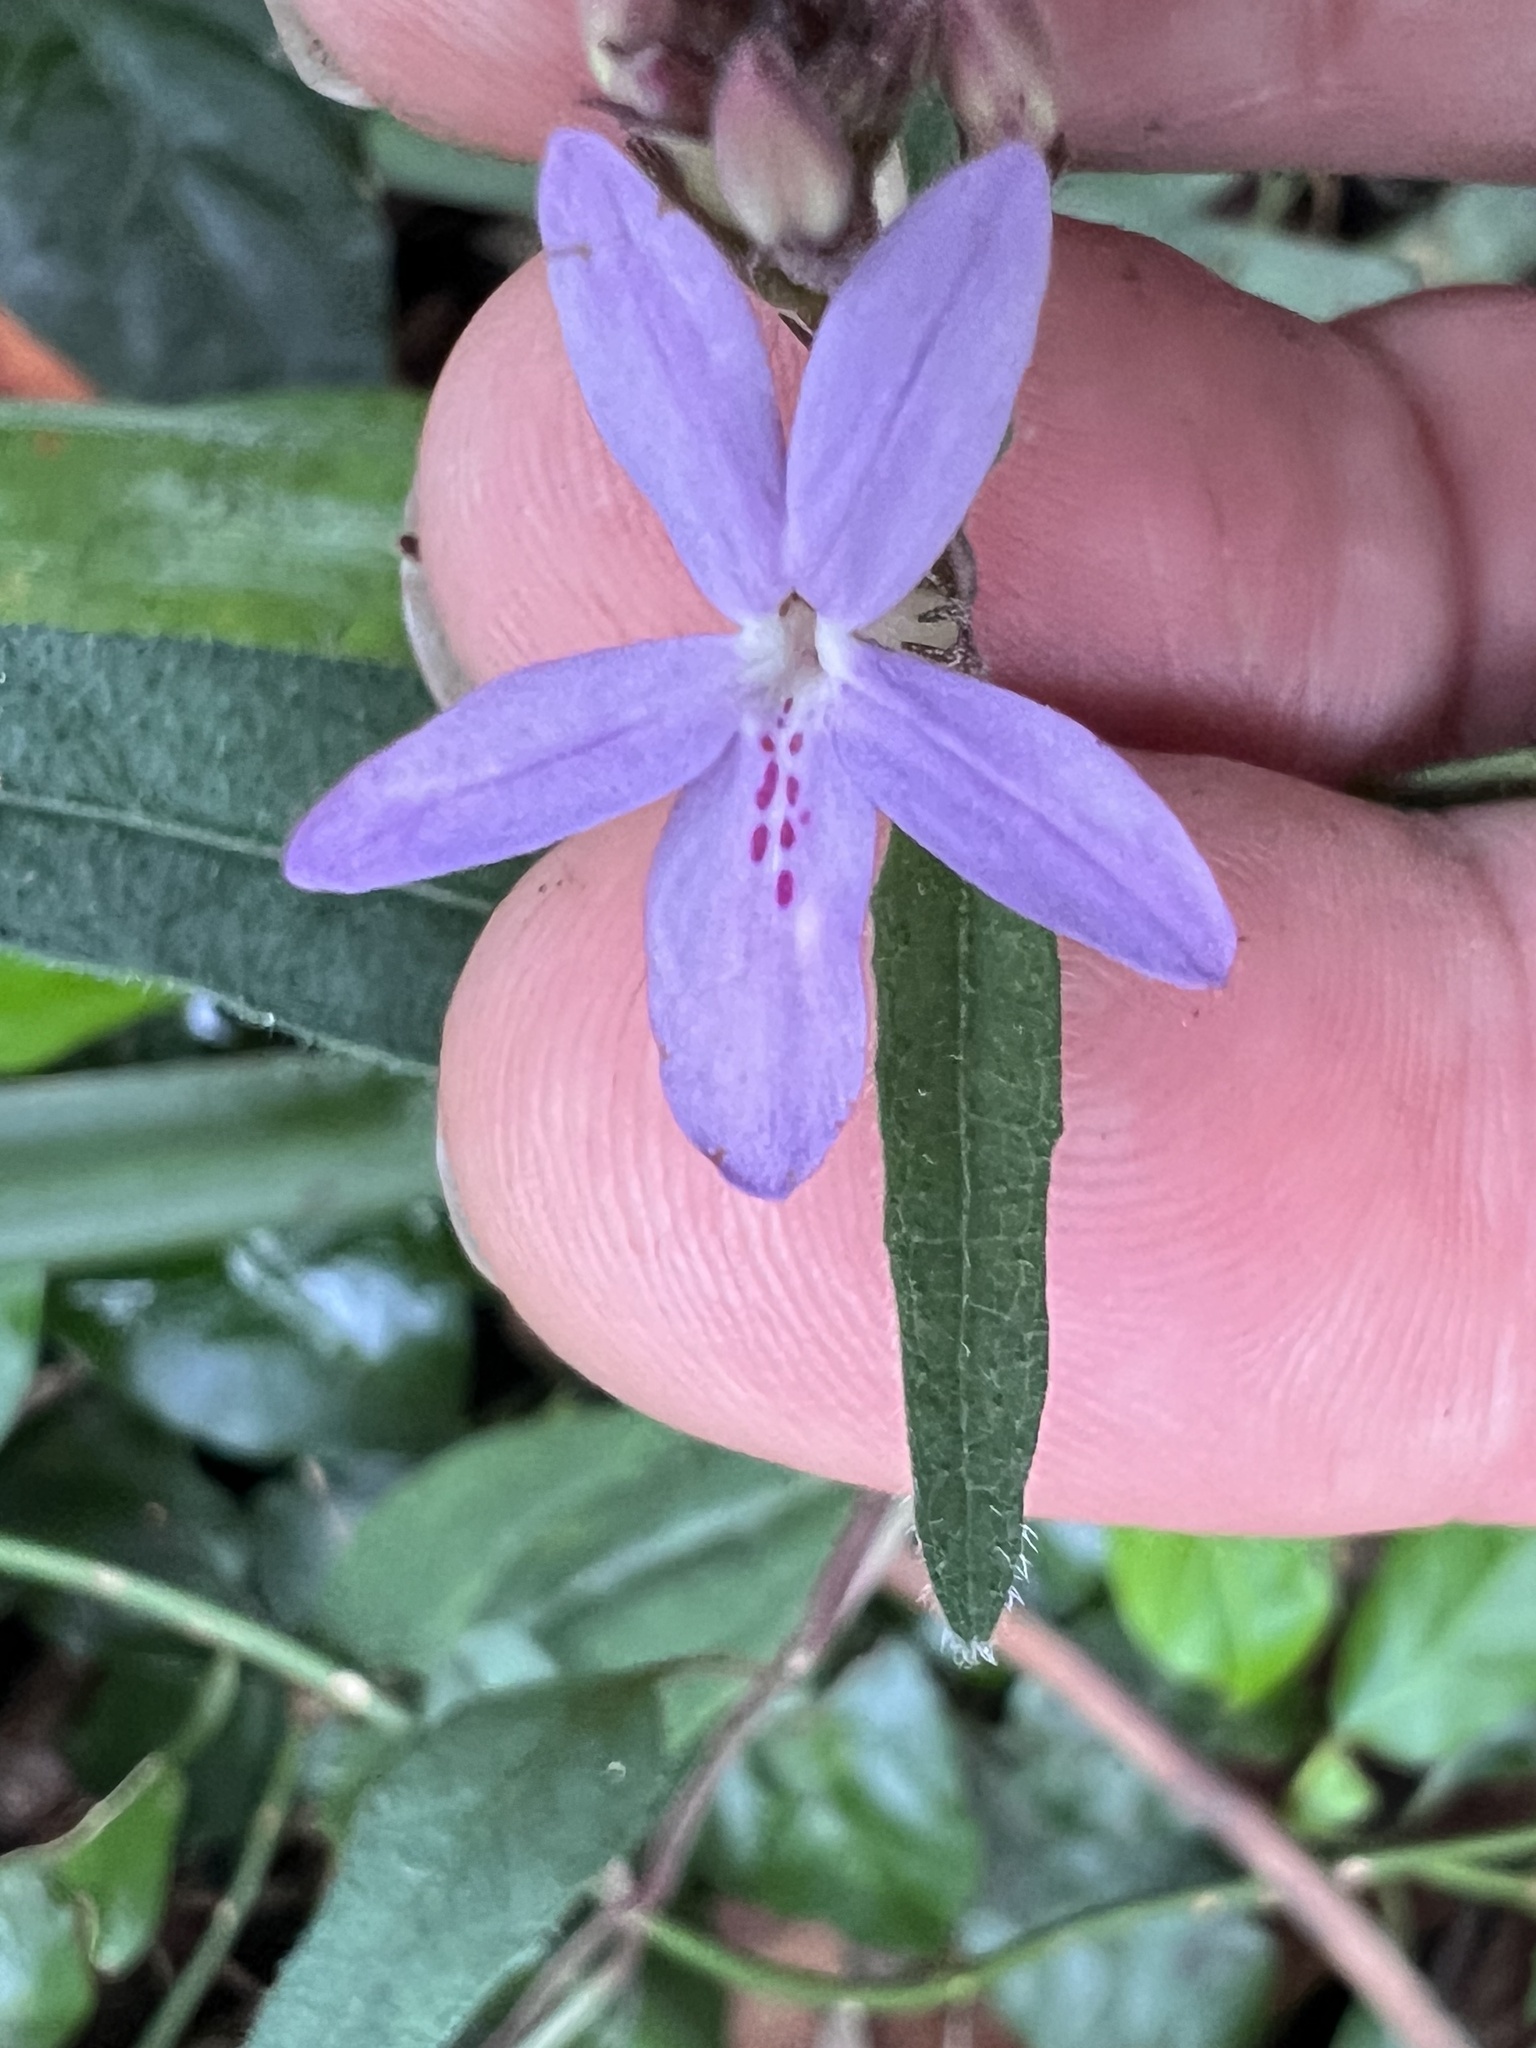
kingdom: Plantae
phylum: Tracheophyta
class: Magnoliopsida
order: Lamiales
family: Acanthaceae
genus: Pseuderanthemum
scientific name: Pseuderanthemum variabile
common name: Night and afternoon
